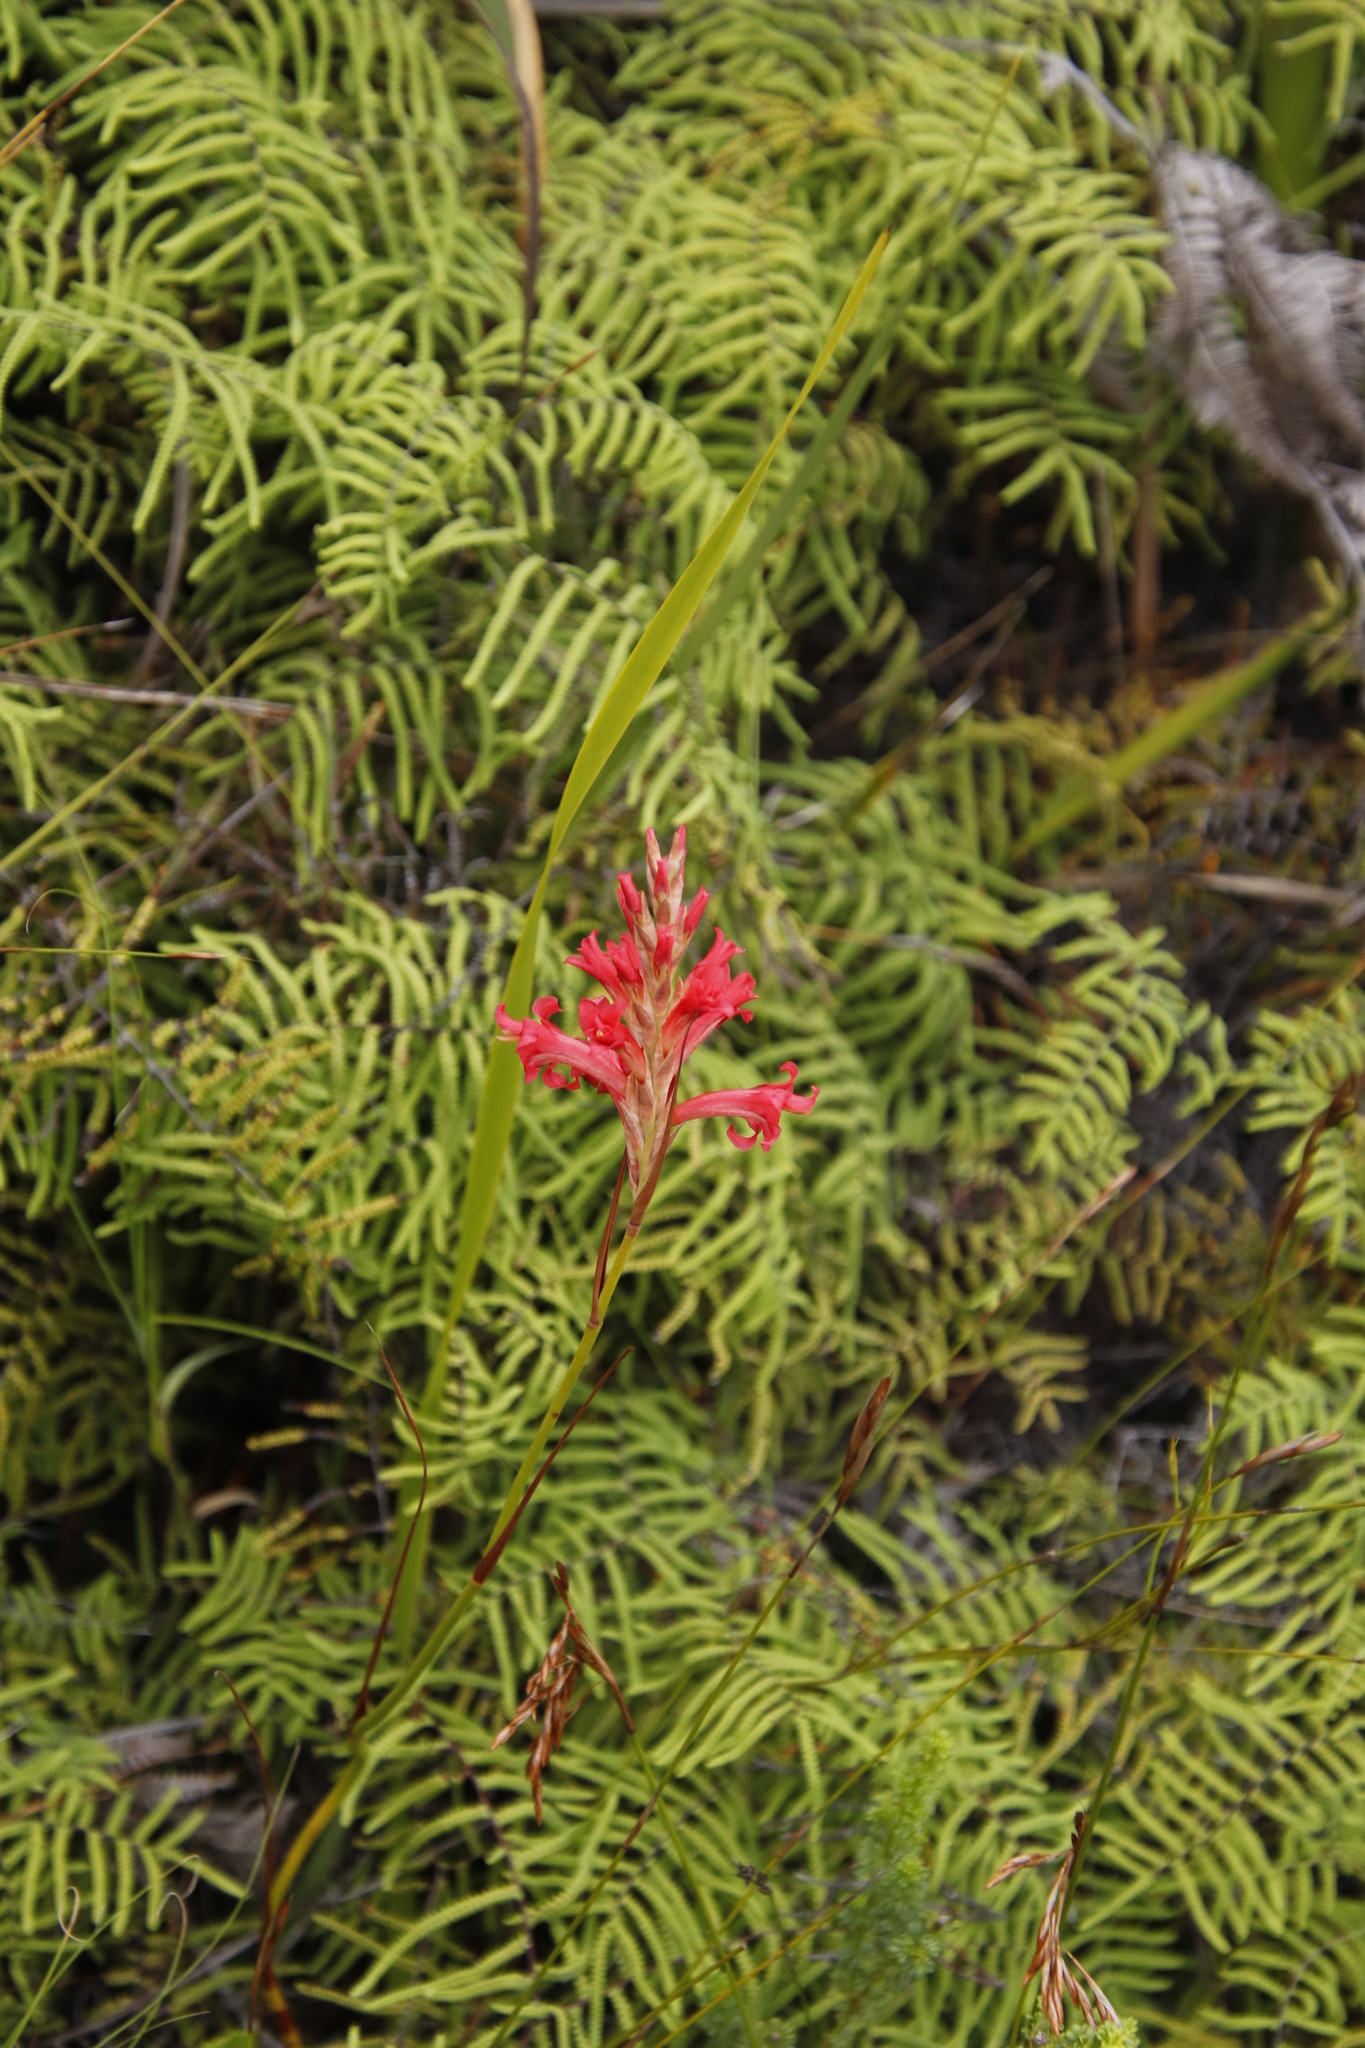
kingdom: Plantae
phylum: Tracheophyta
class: Liliopsida
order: Asparagales
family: Iridaceae
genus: Tritoniopsis
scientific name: Tritoniopsis triticea
